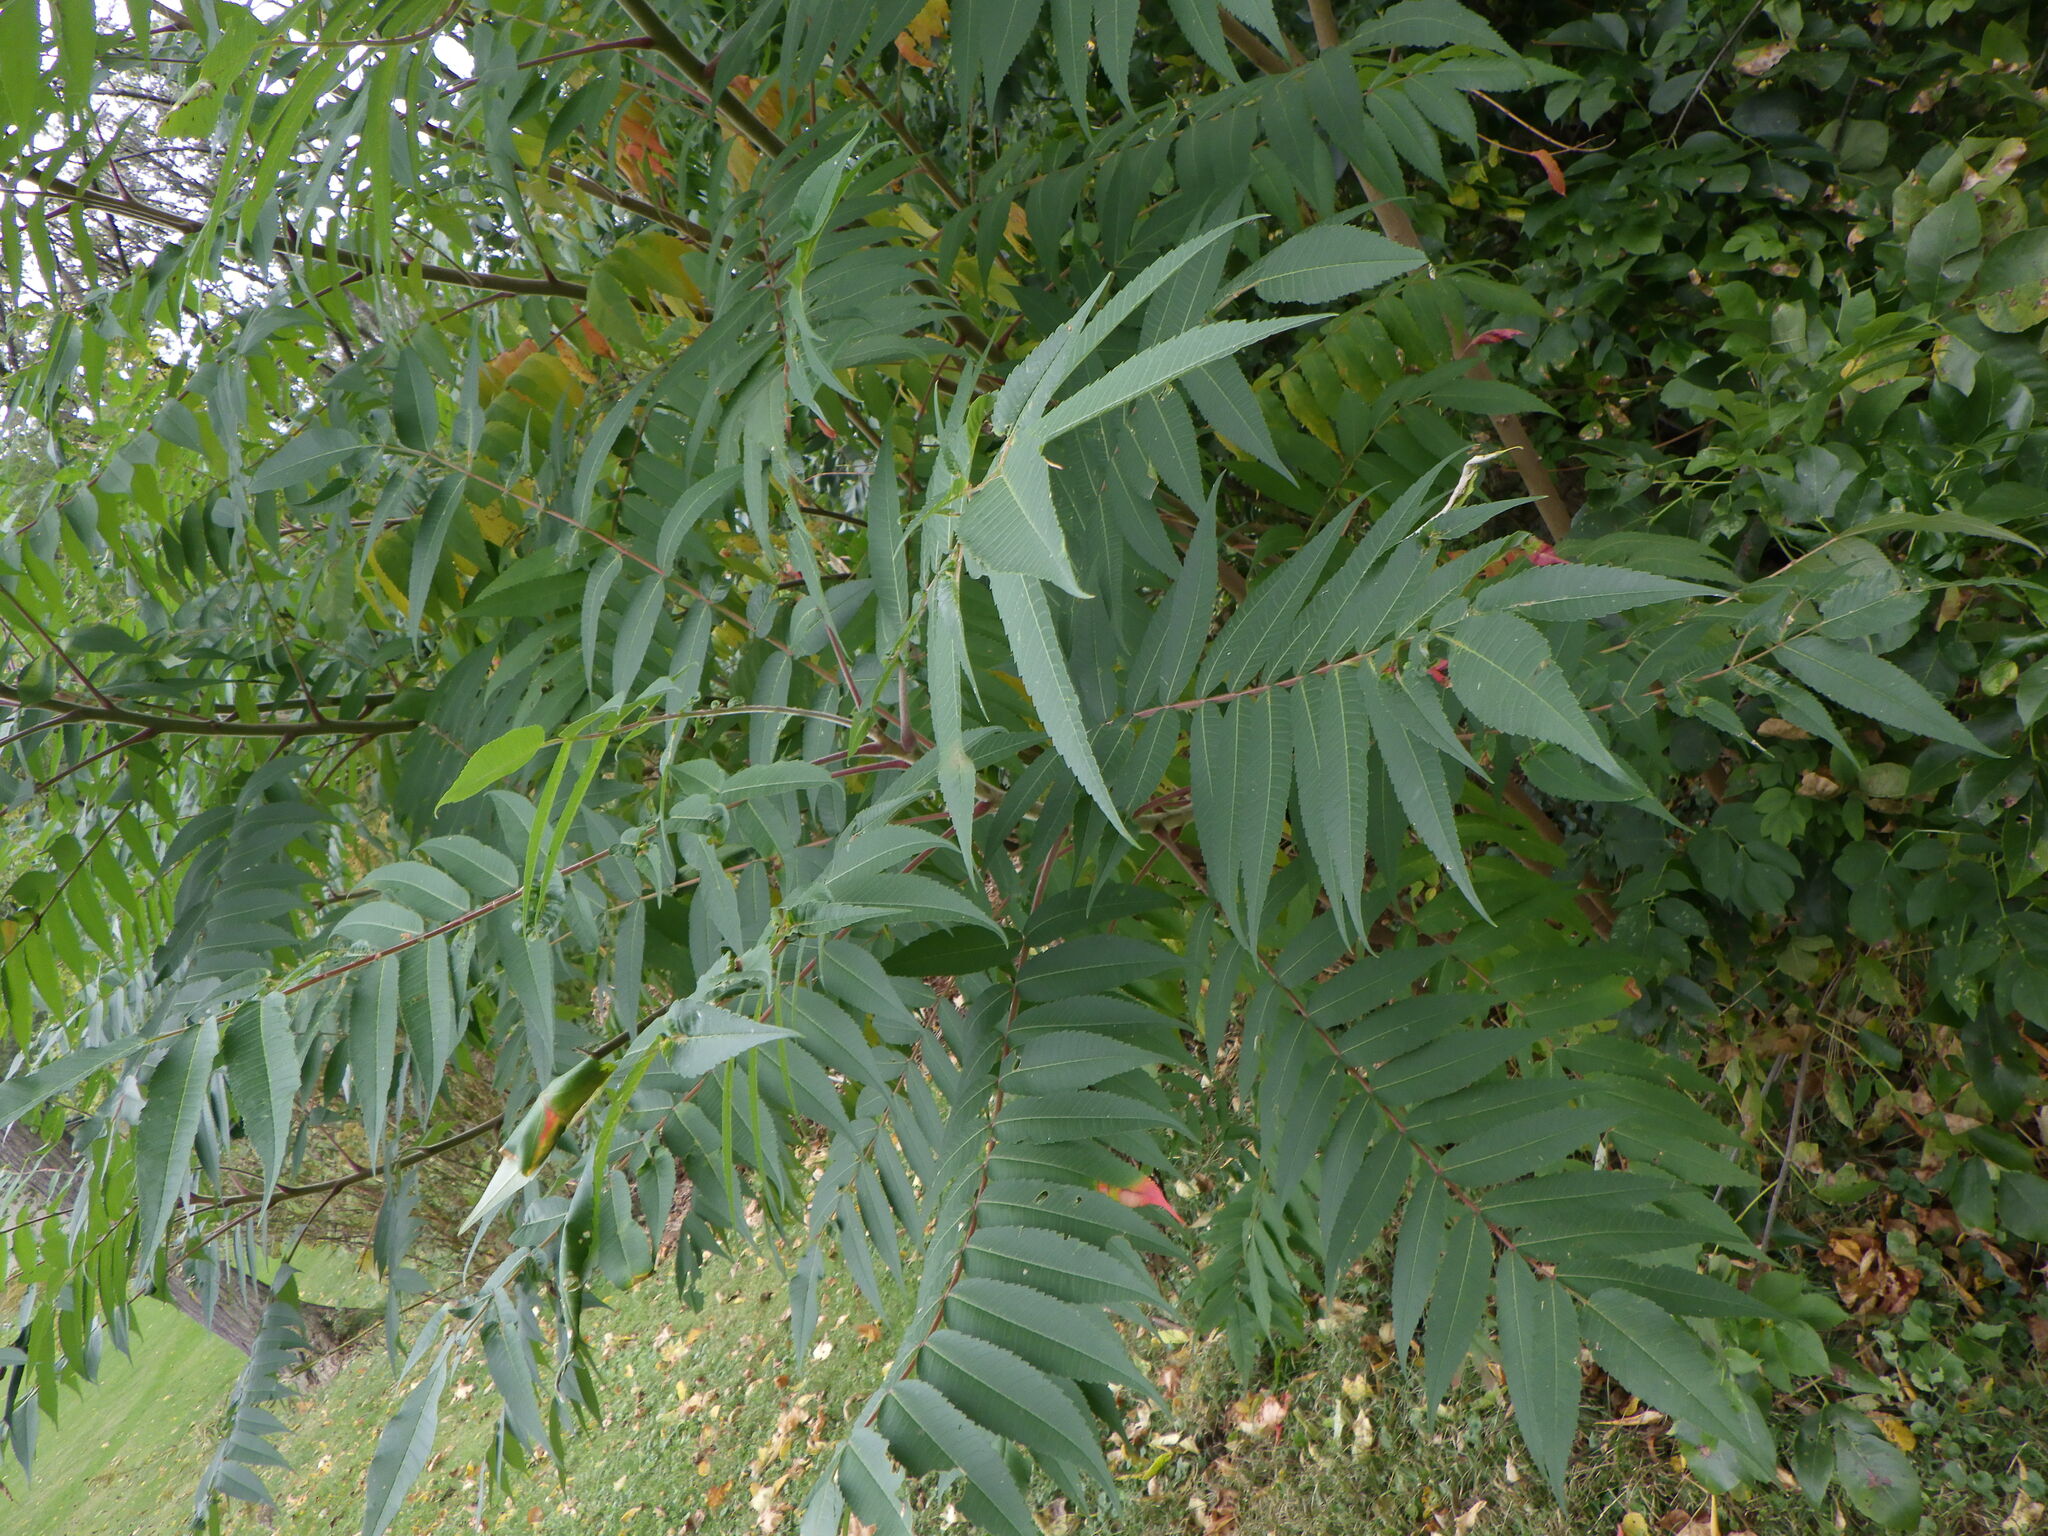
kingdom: Plantae
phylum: Tracheophyta
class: Magnoliopsida
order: Sapindales
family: Anacardiaceae
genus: Rhus
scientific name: Rhus typhina
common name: Staghorn sumac
